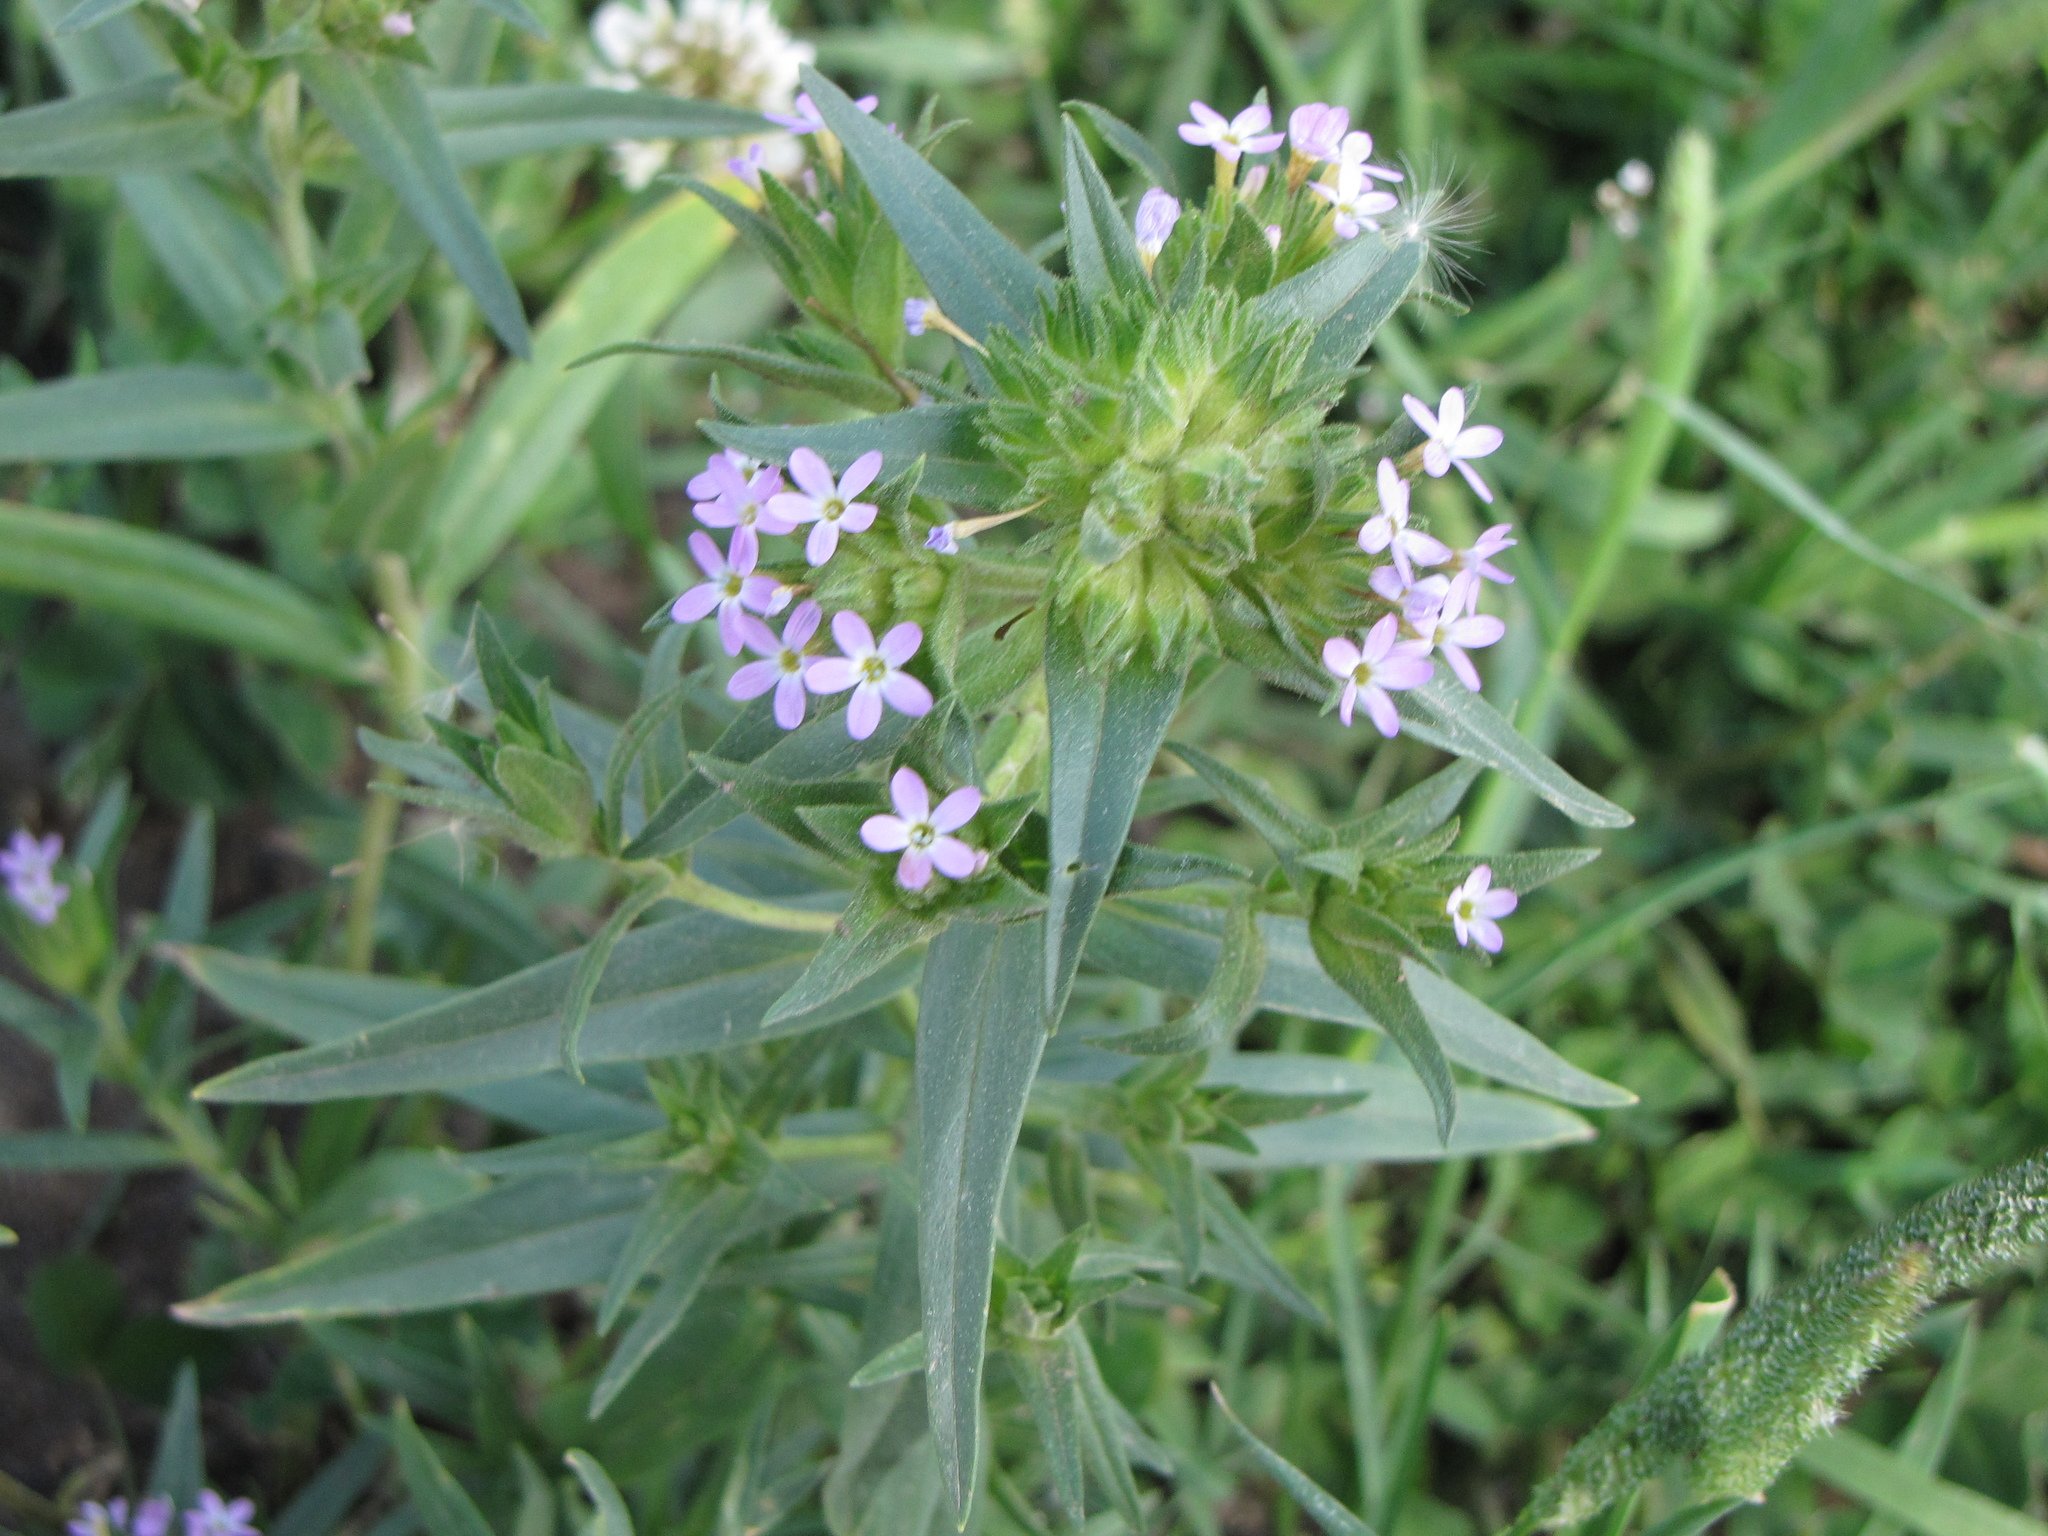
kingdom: Plantae
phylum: Tracheophyta
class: Magnoliopsida
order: Ericales
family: Polemoniaceae
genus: Collomia
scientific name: Collomia linearis
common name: Tiny trumpet
